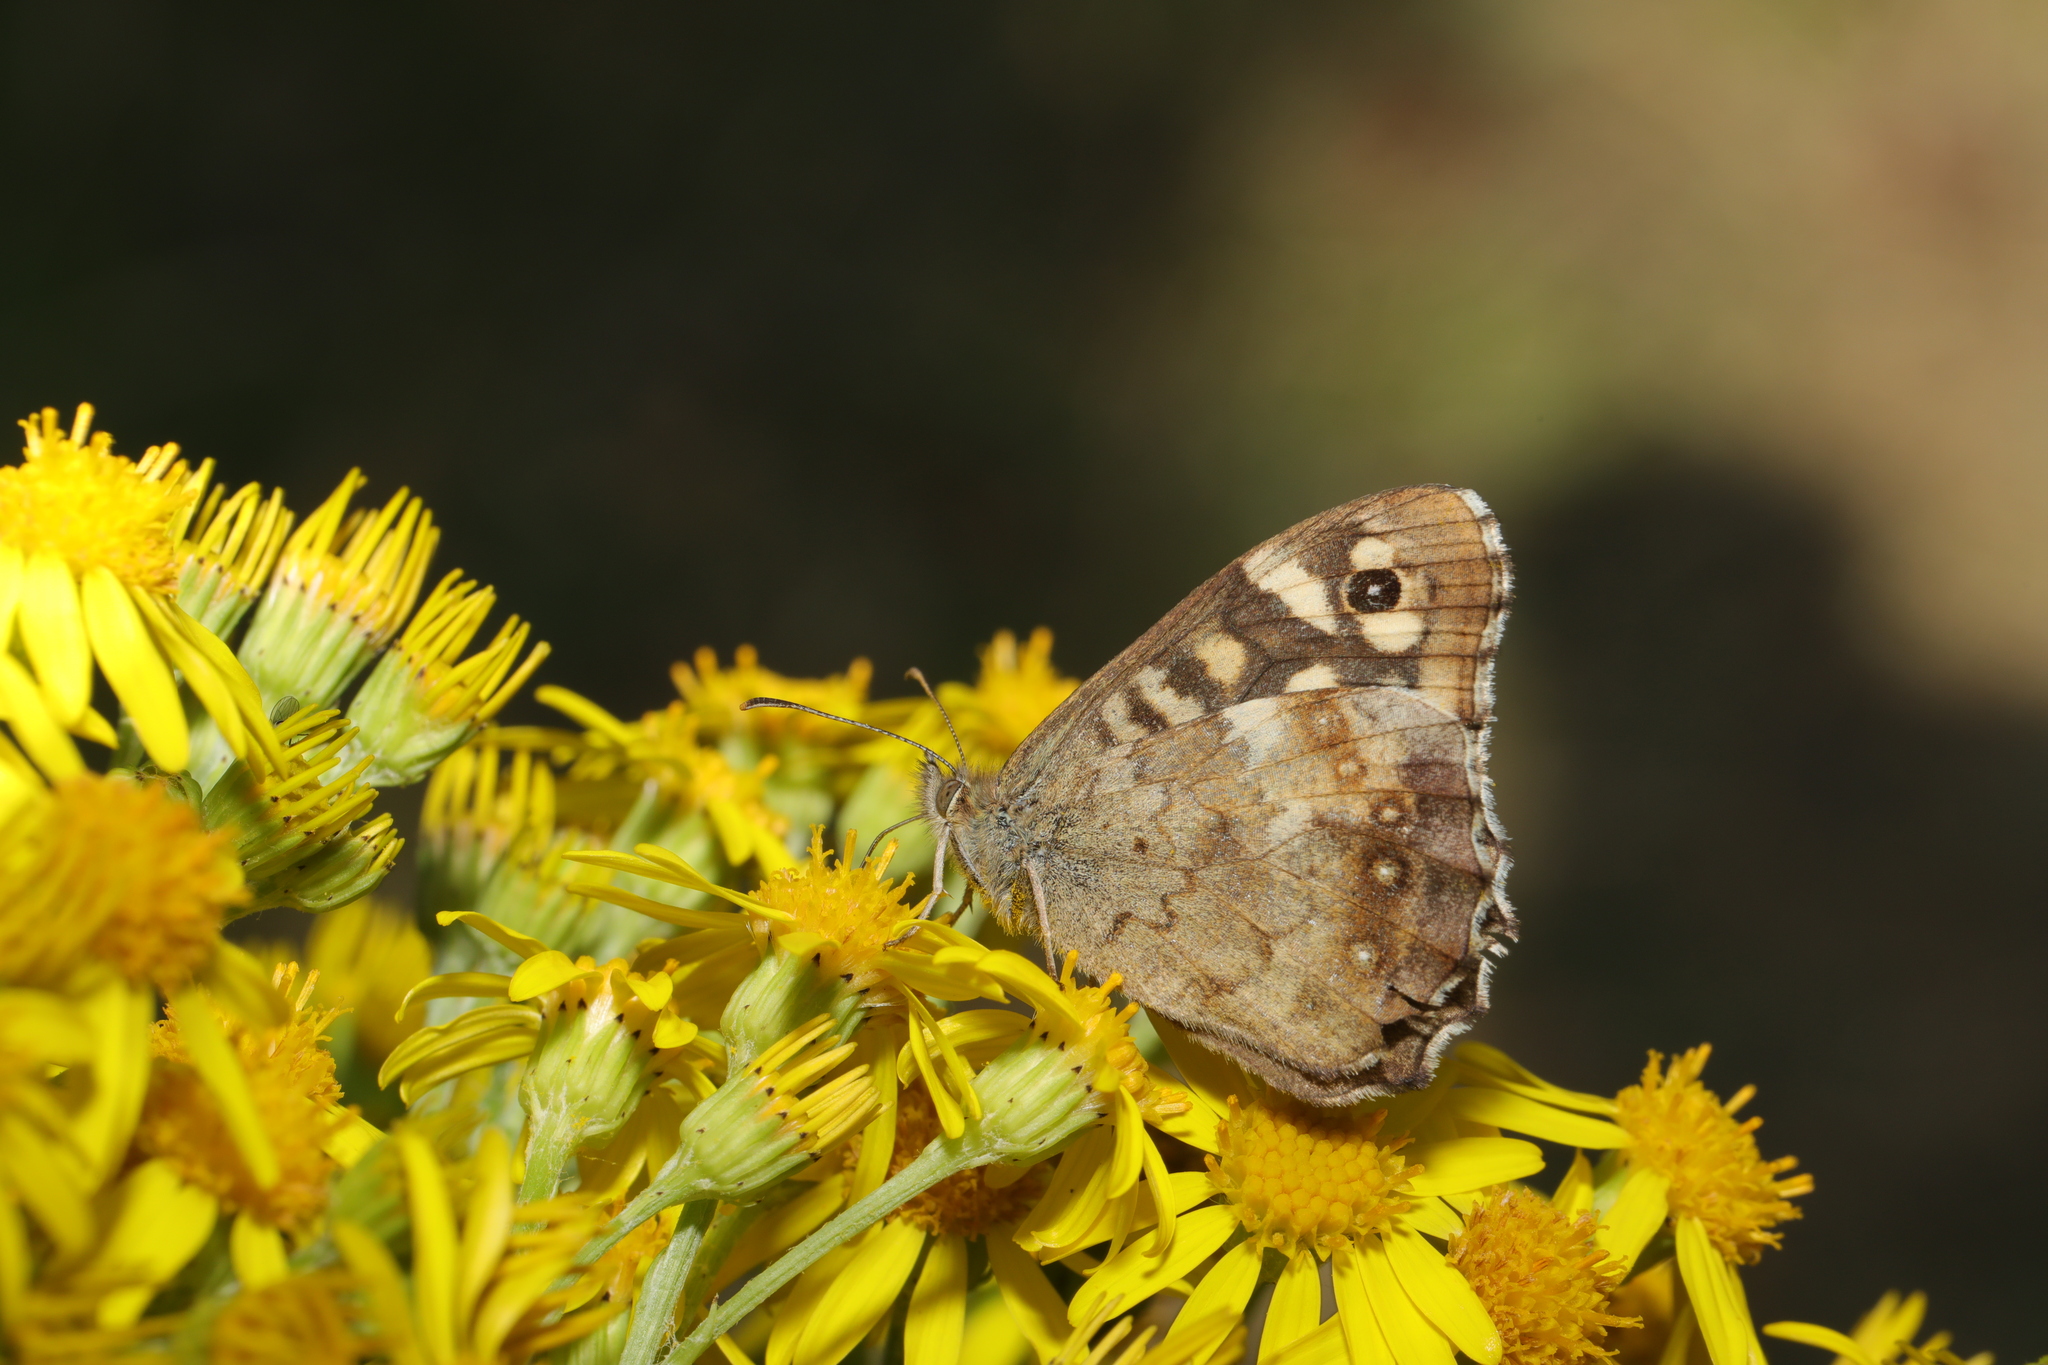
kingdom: Animalia
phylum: Arthropoda
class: Insecta
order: Lepidoptera
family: Nymphalidae
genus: Pararge
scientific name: Pararge aegeria
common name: Speckled wood
